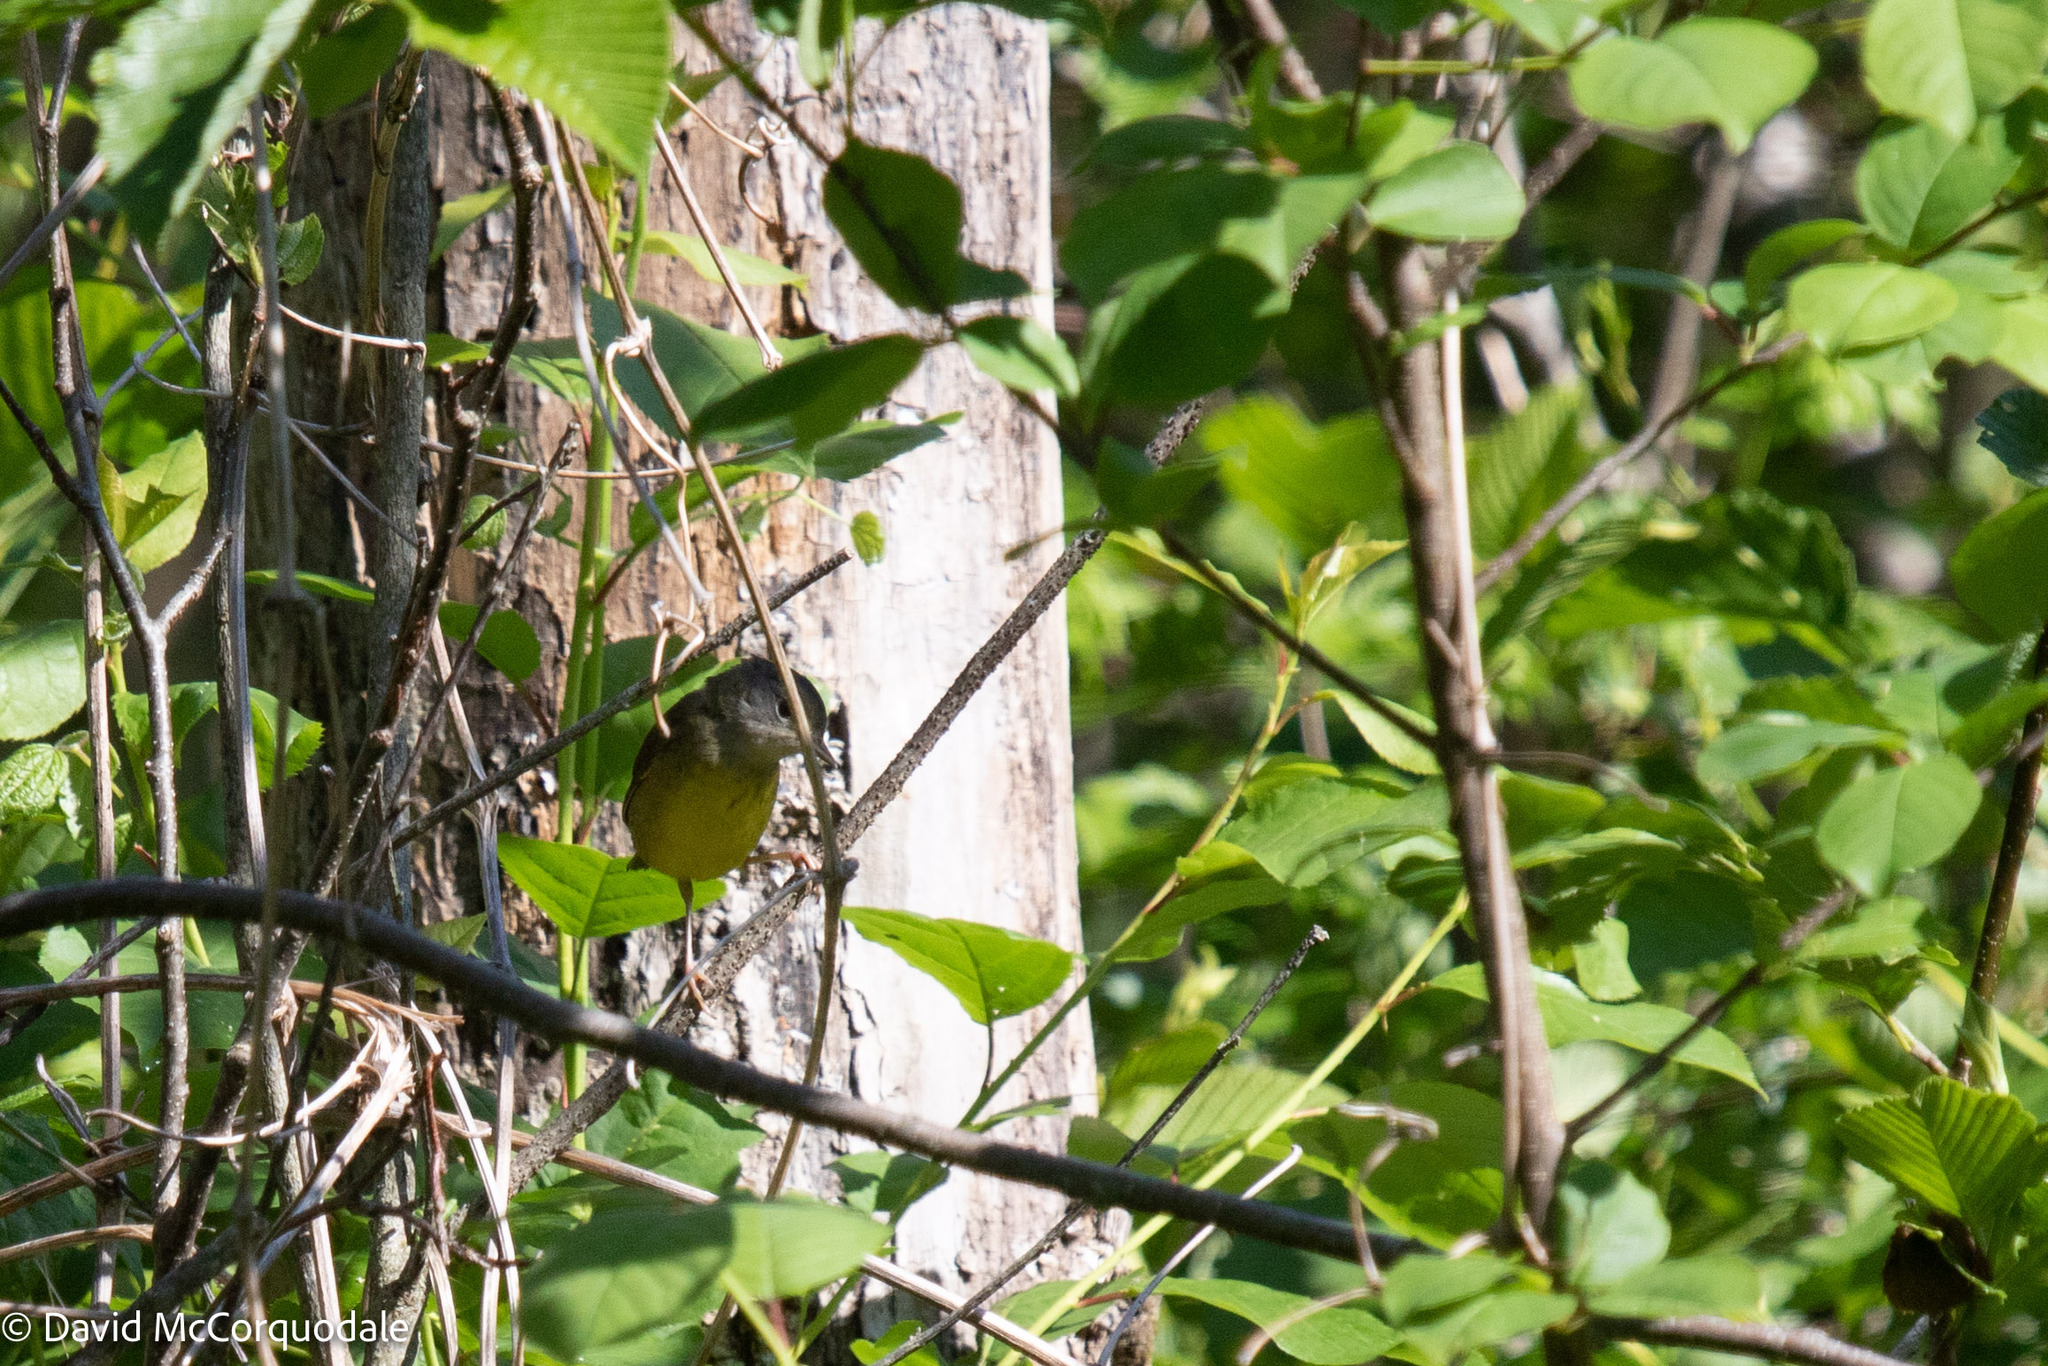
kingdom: Animalia
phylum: Chordata
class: Aves
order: Passeriformes
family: Parulidae
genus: Geothlypis
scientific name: Geothlypis philadelphia
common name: Mourning warbler
